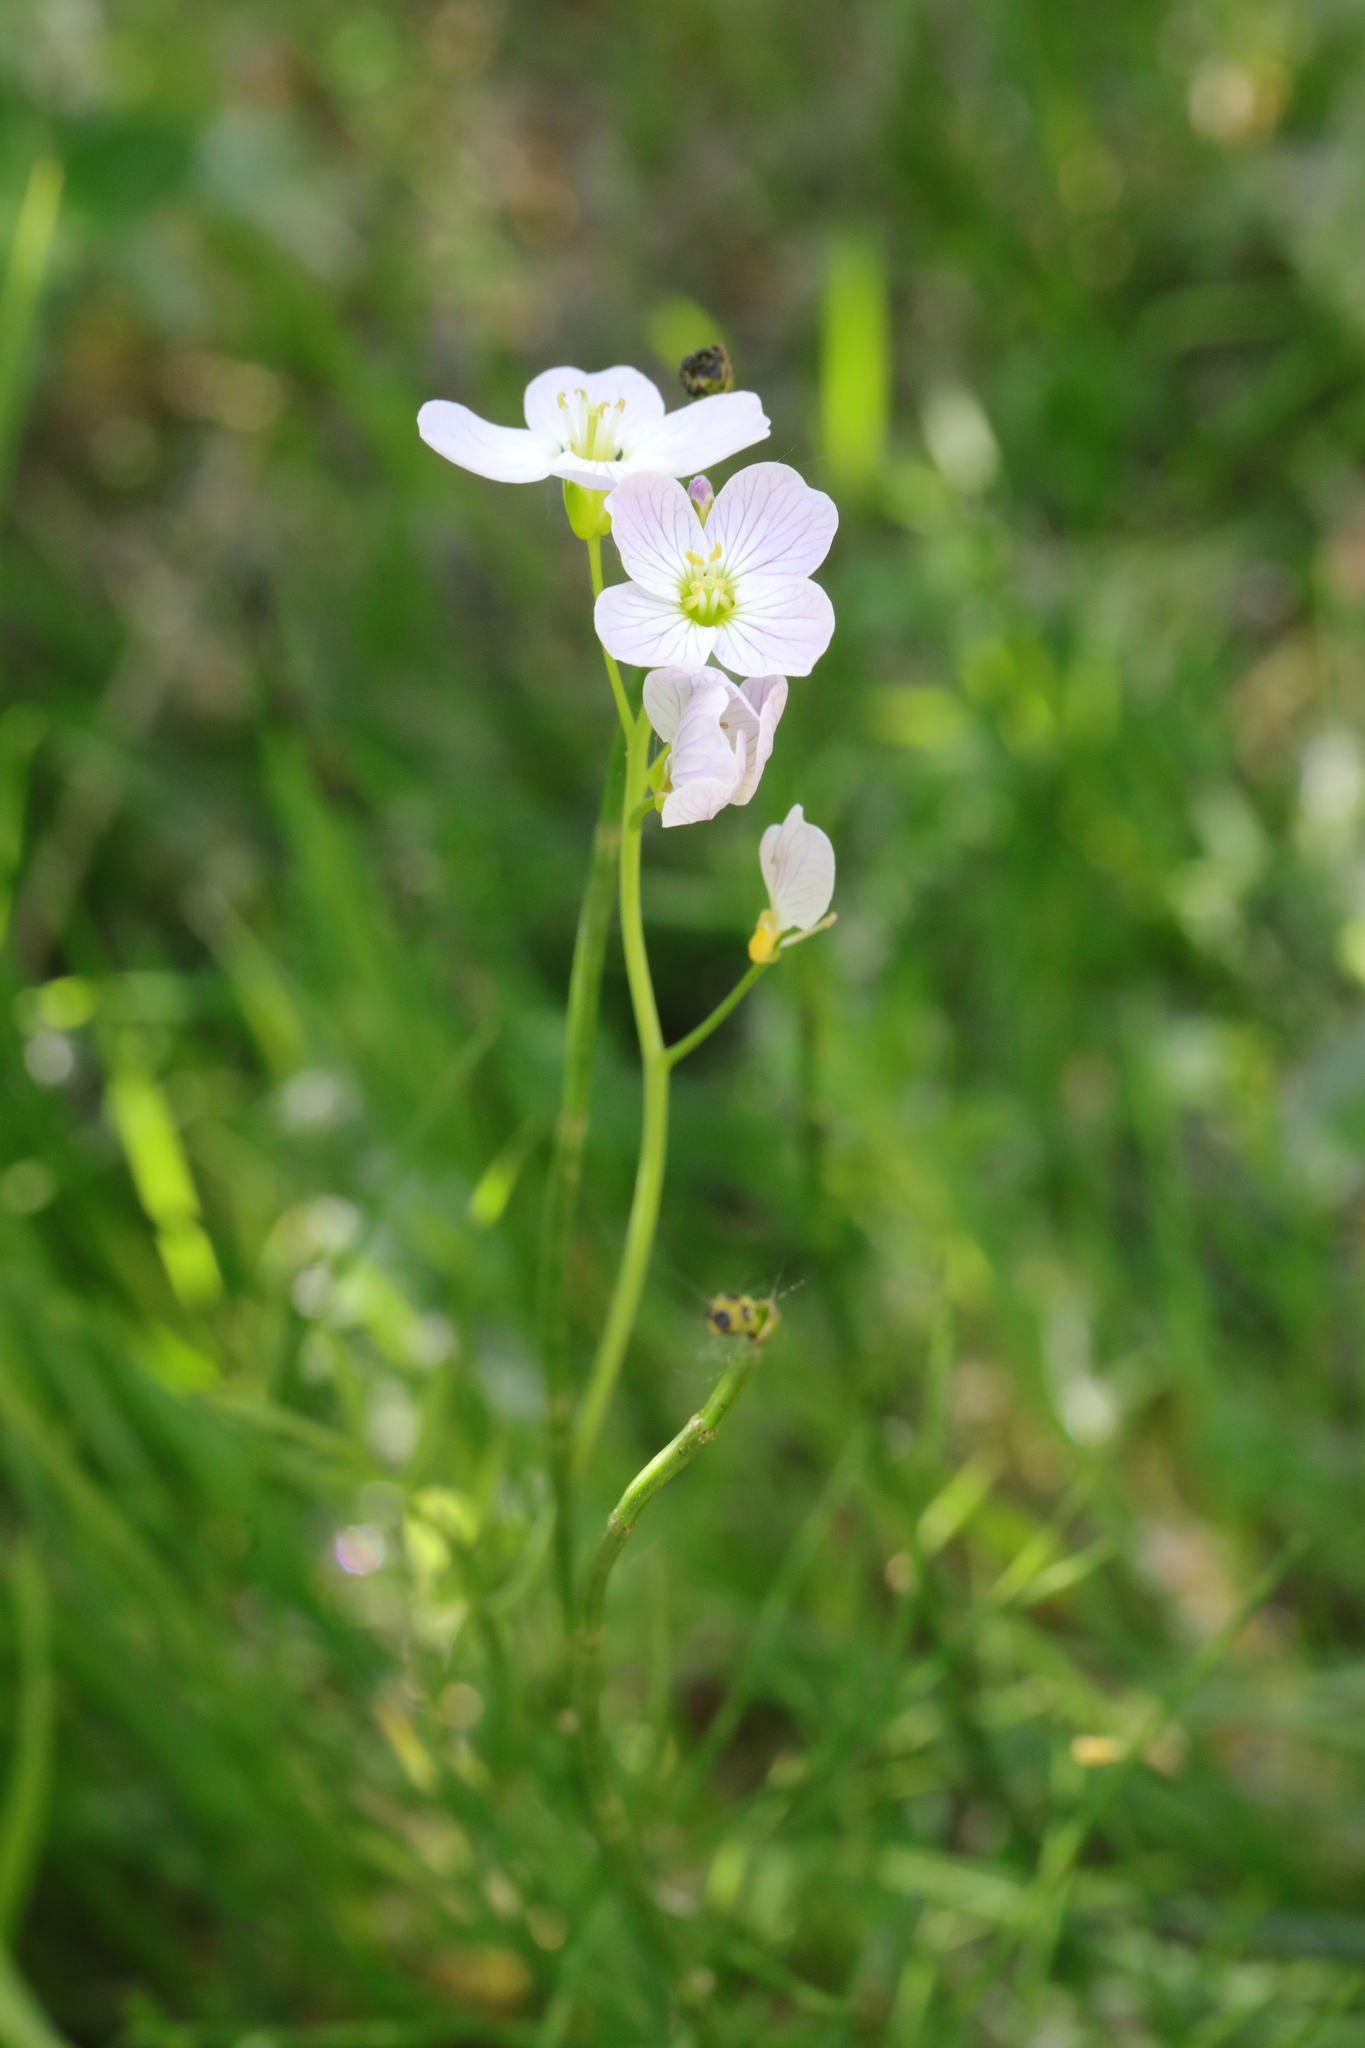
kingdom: Plantae
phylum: Tracheophyta
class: Magnoliopsida
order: Brassicales
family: Brassicaceae
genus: Cardamine
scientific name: Cardamine pratensis
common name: Cuckoo flower
